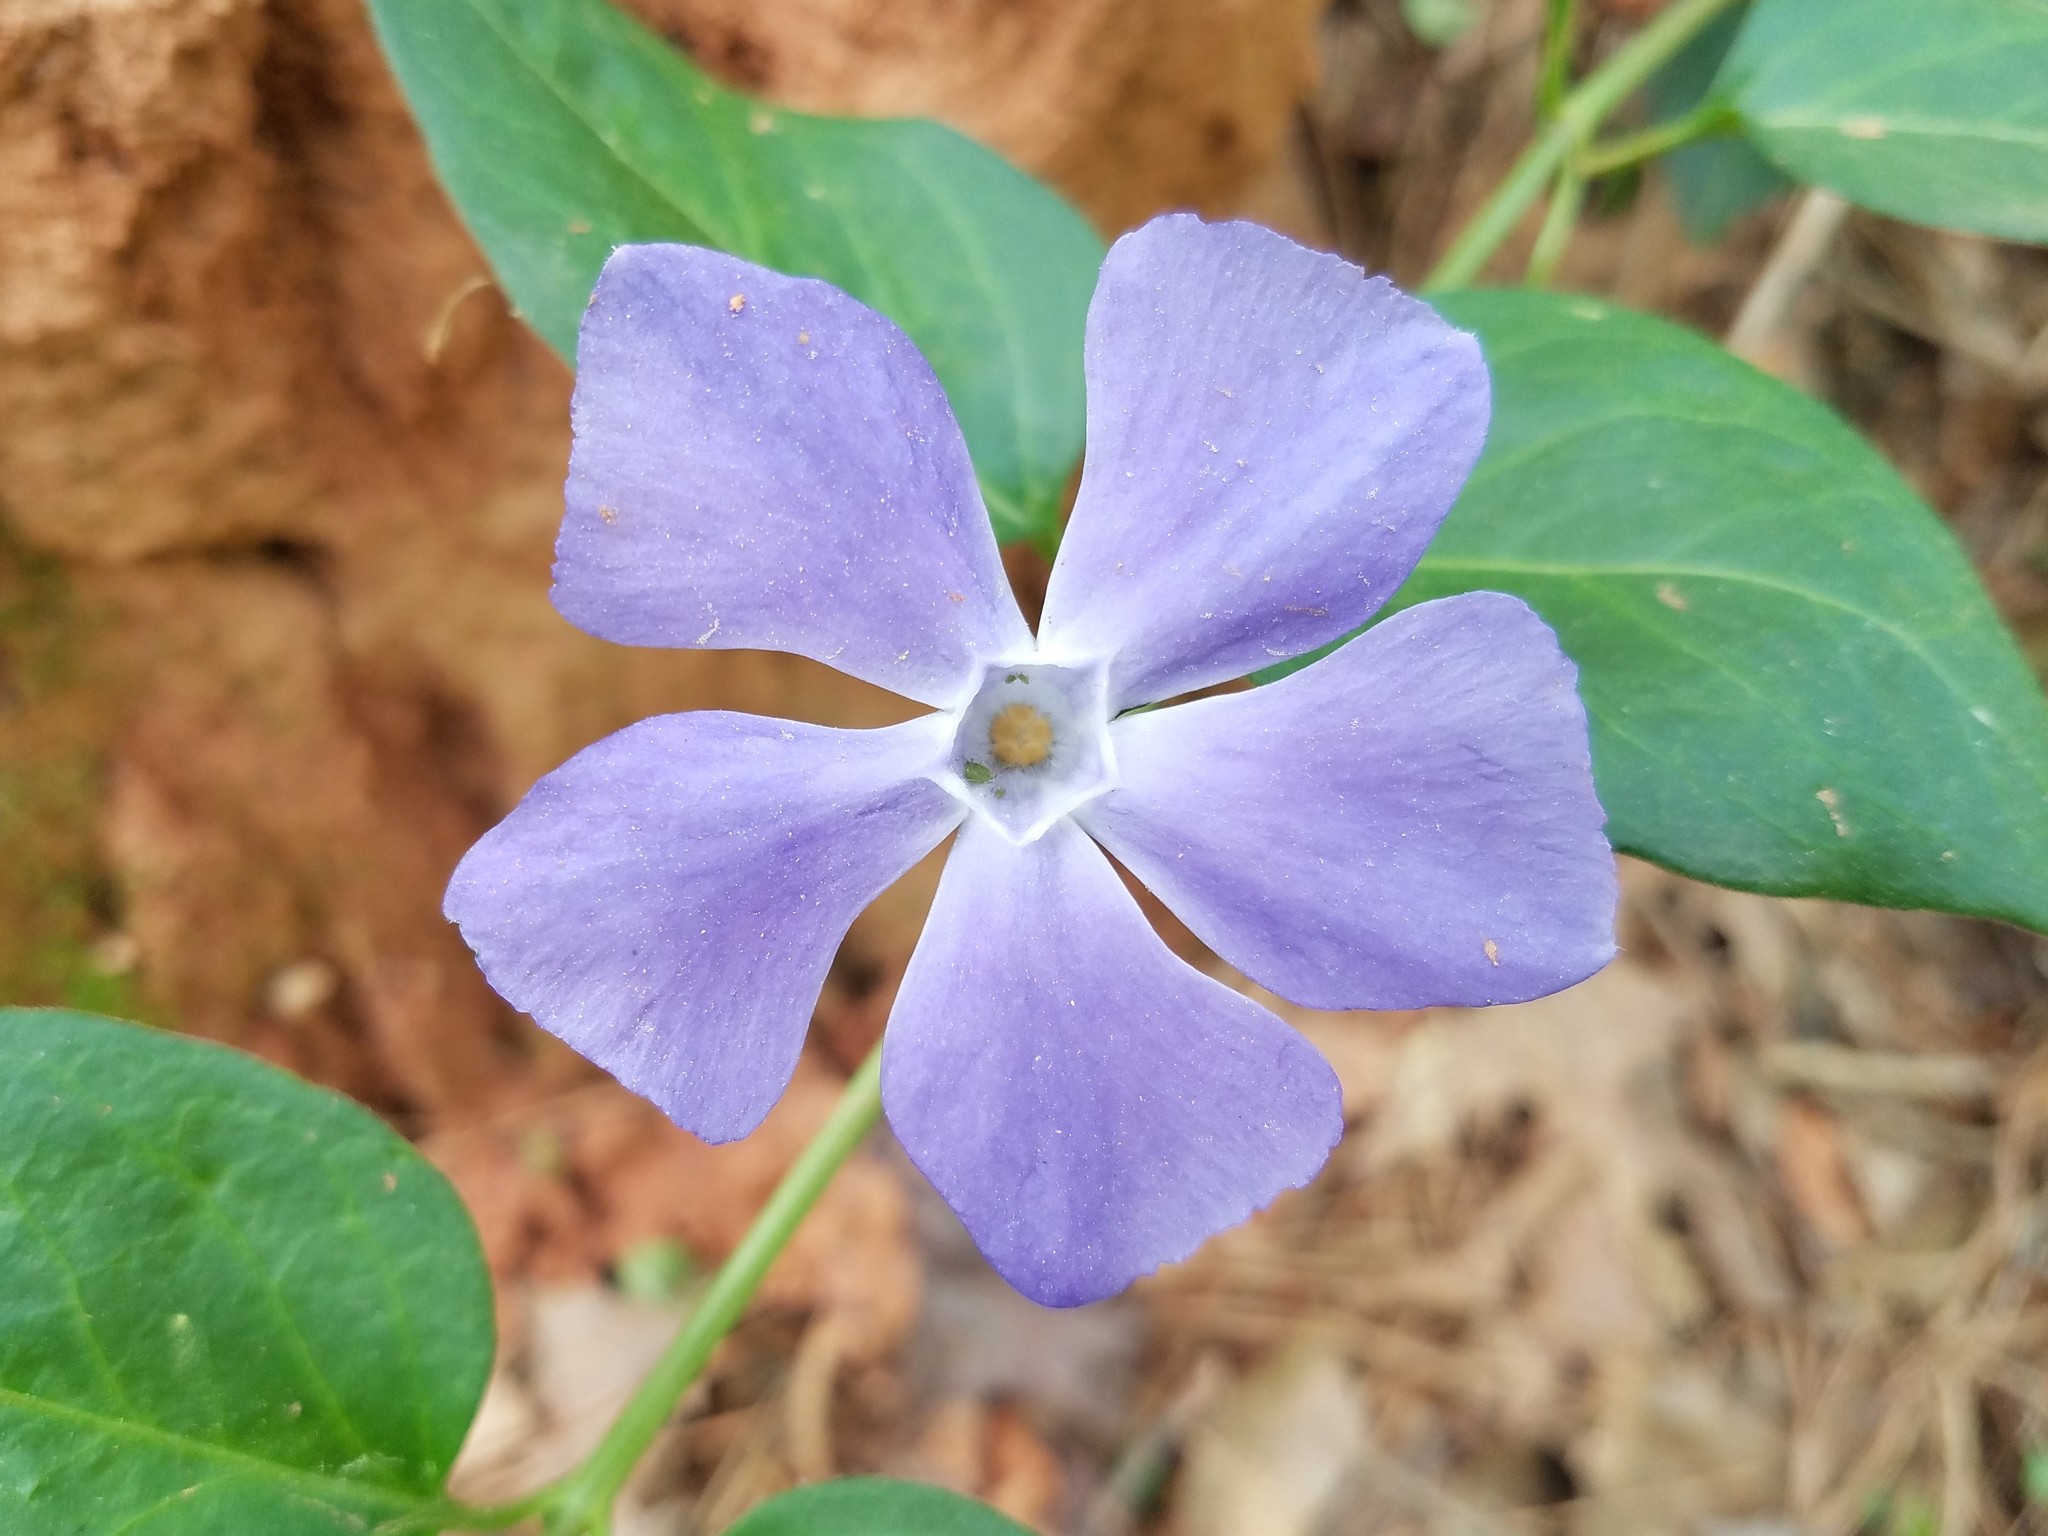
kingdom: Plantae
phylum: Tracheophyta
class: Magnoliopsida
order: Gentianales
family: Apocynaceae
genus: Vinca
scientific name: Vinca major
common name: Greater periwinkle
